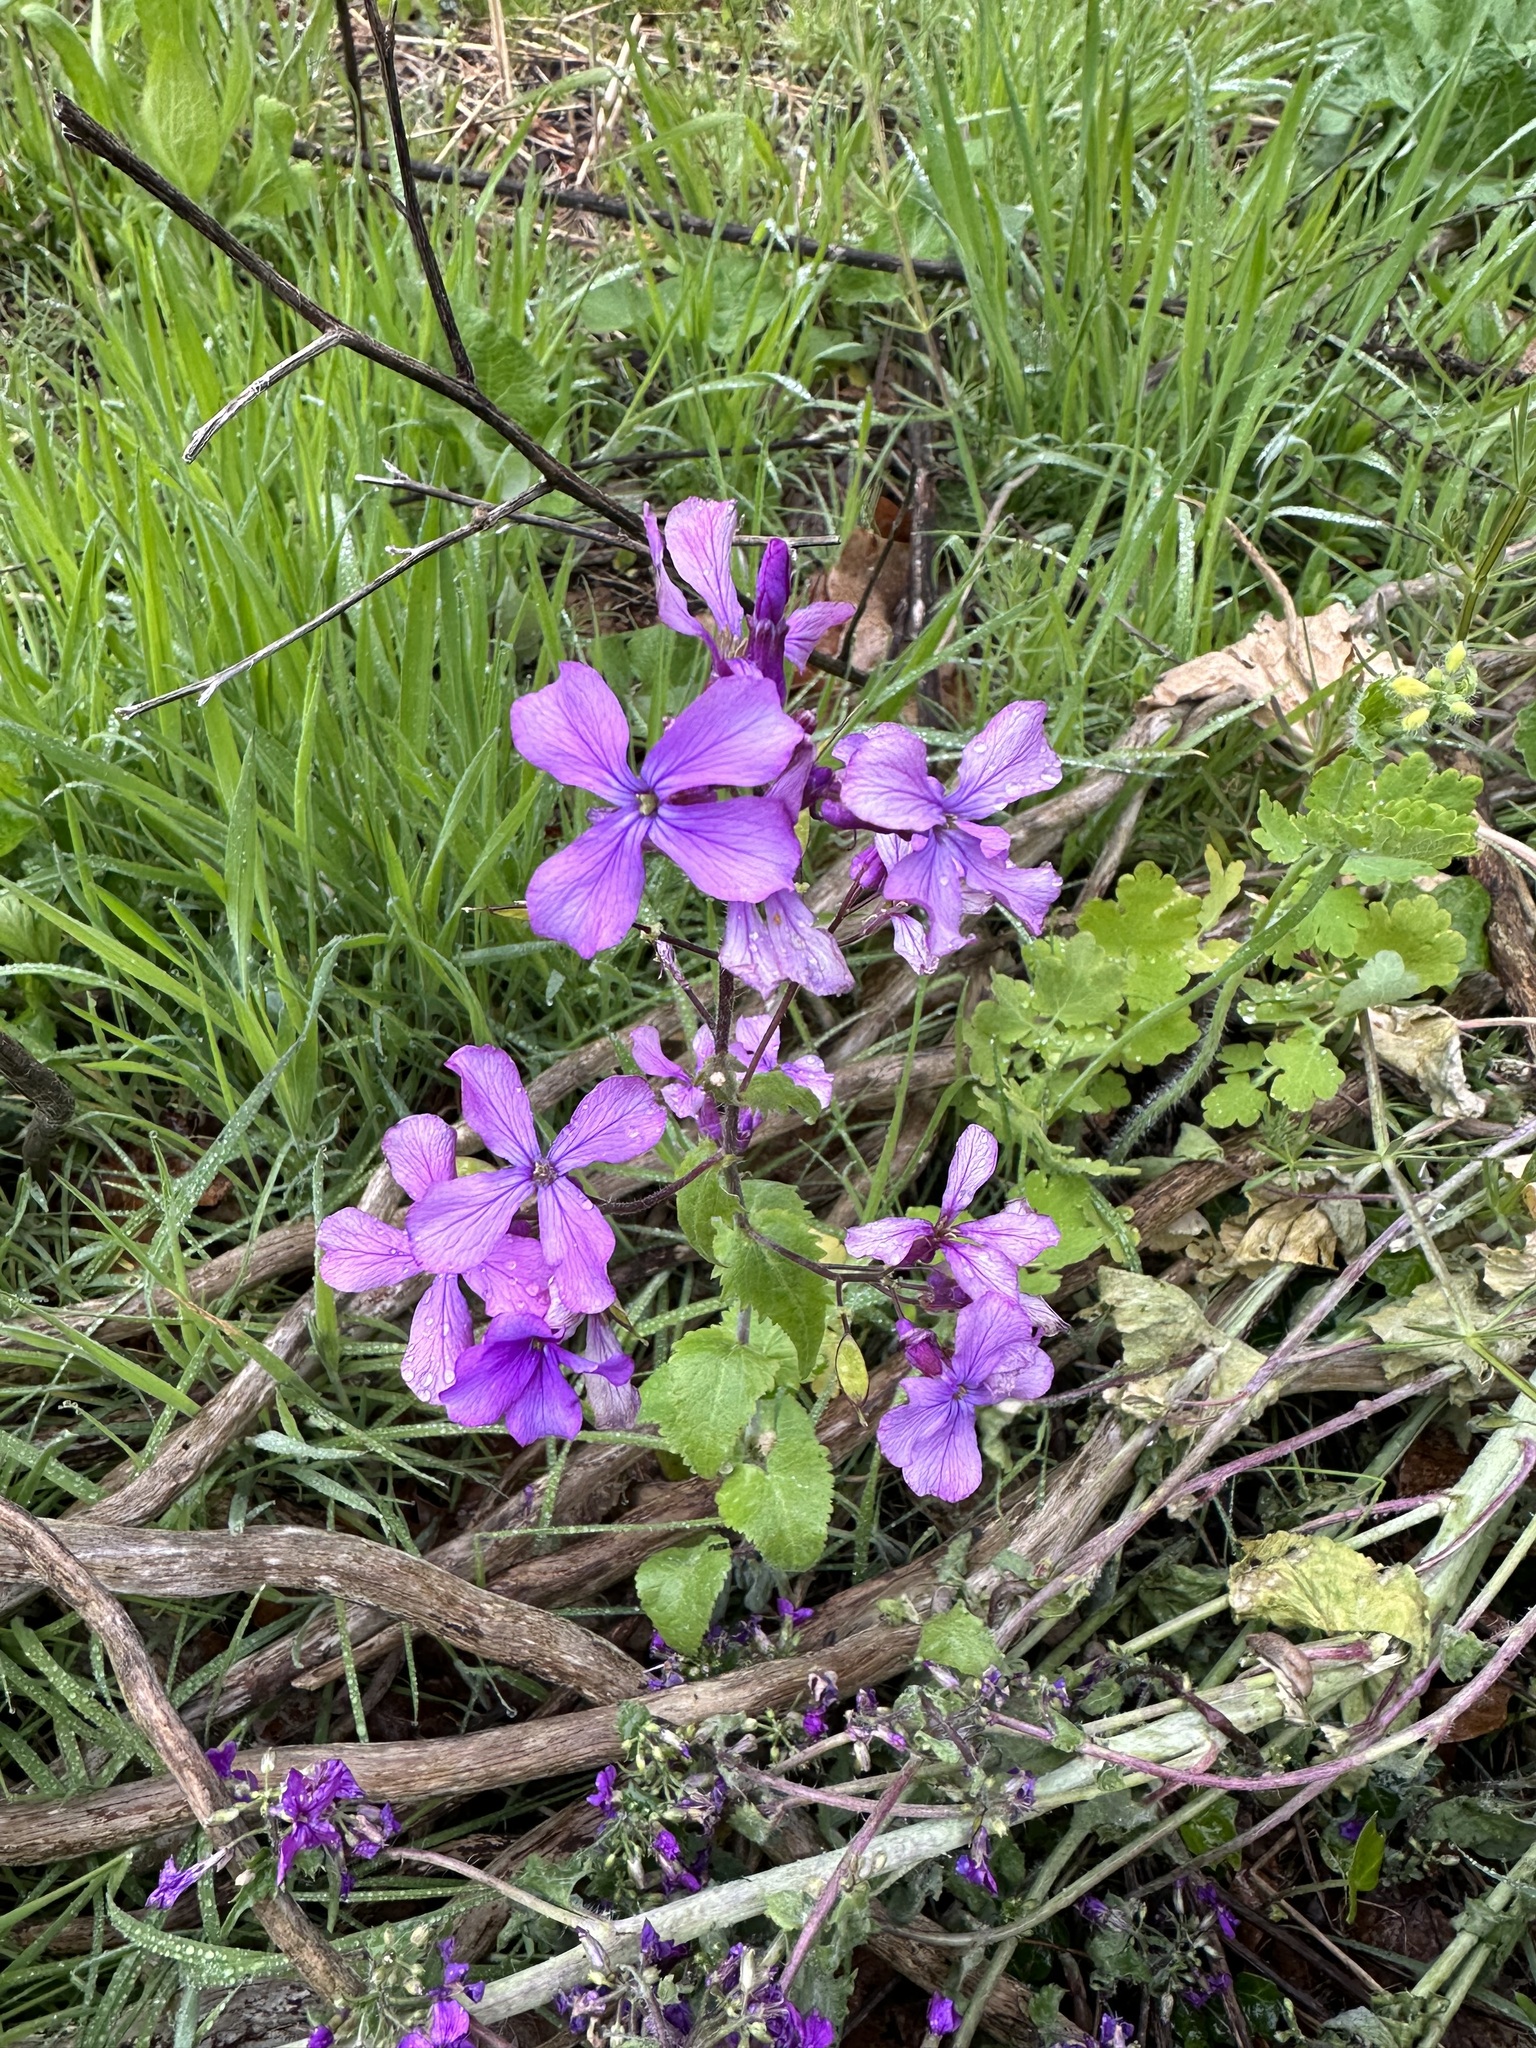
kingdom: Plantae
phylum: Tracheophyta
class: Magnoliopsida
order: Brassicales
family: Brassicaceae
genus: Lunaria
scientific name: Lunaria annua
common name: Honesty
